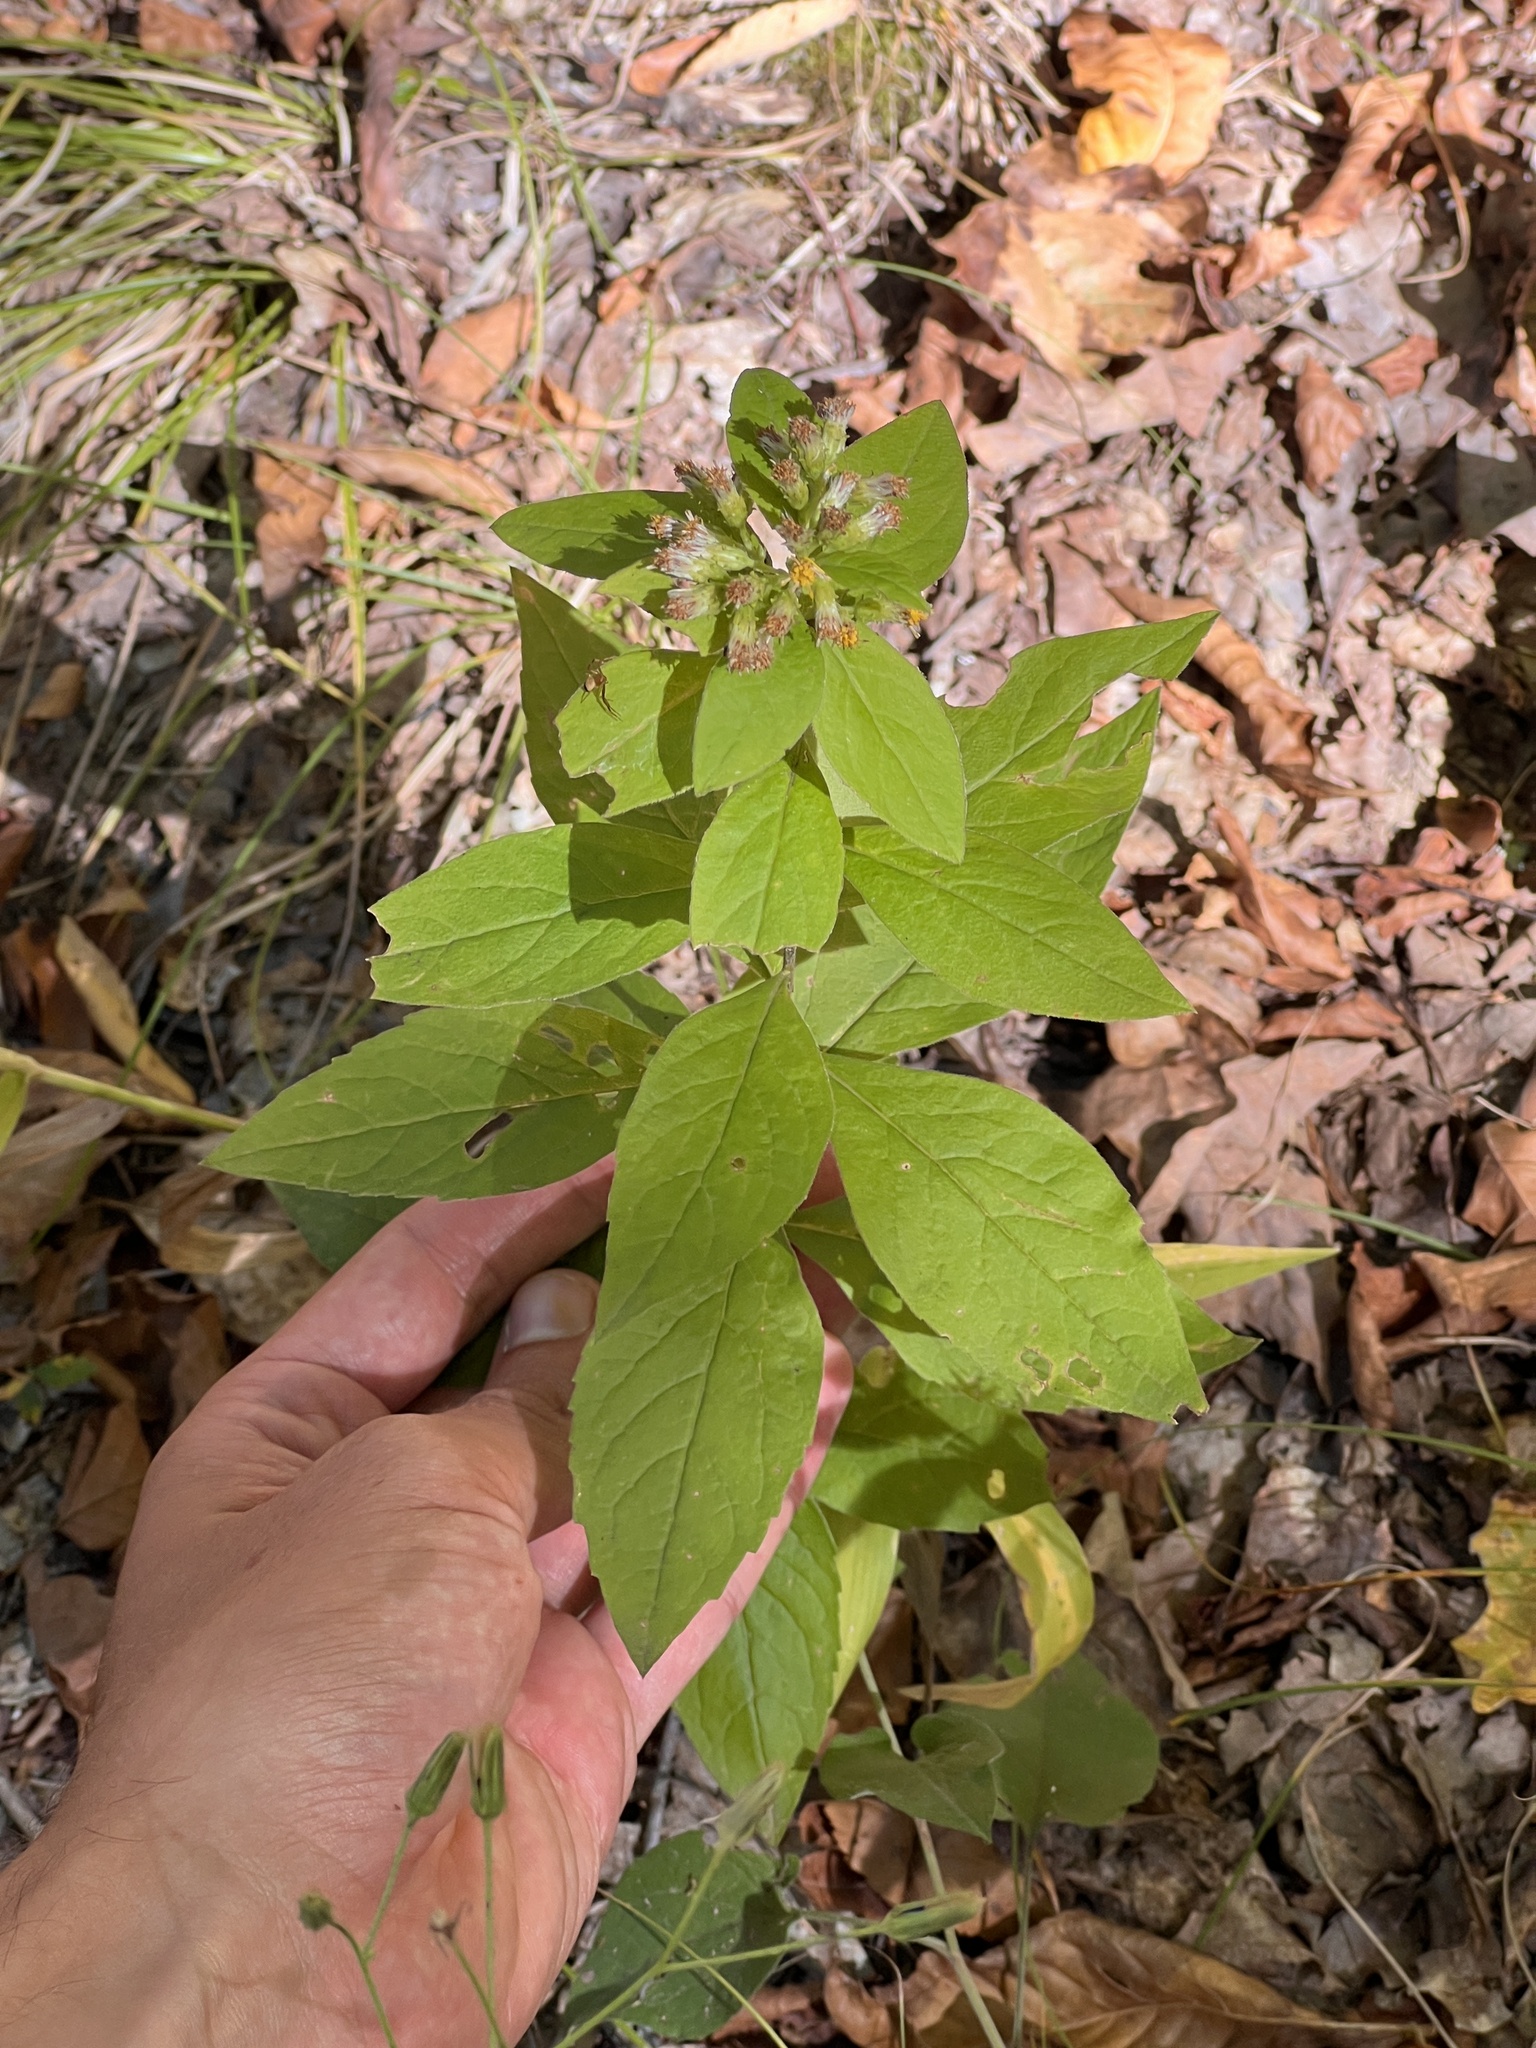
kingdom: Plantae
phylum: Tracheophyta
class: Magnoliopsida
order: Asterales
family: Asteraceae
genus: Solidago
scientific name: Solidago buckleyi
